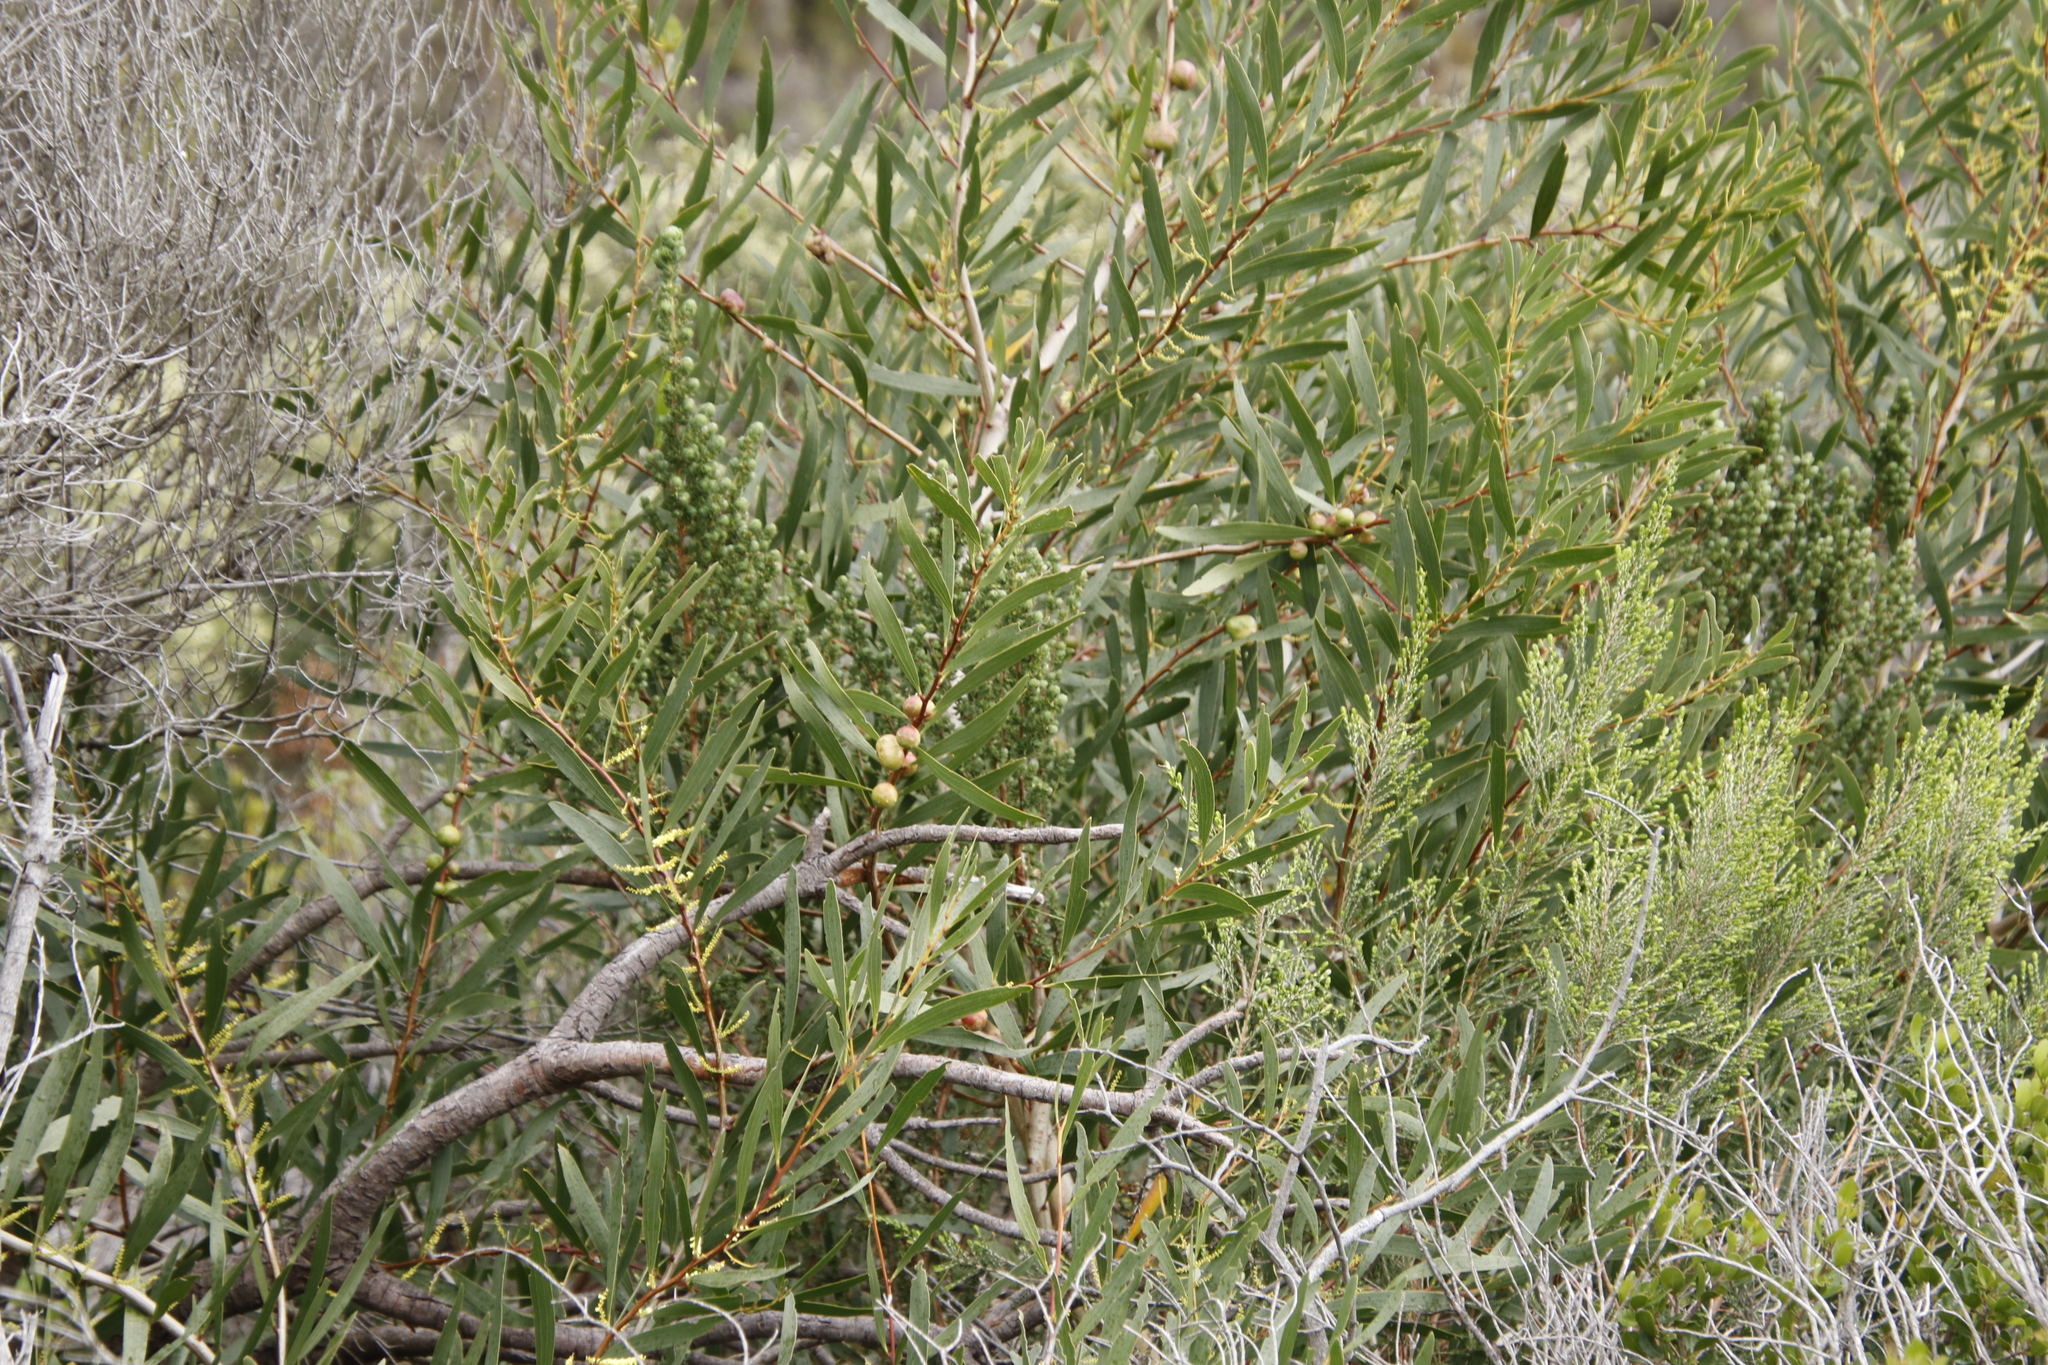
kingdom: Plantae
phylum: Tracheophyta
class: Magnoliopsida
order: Fabales
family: Fabaceae
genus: Acacia
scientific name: Acacia longifolia
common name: Sydney golden wattle
